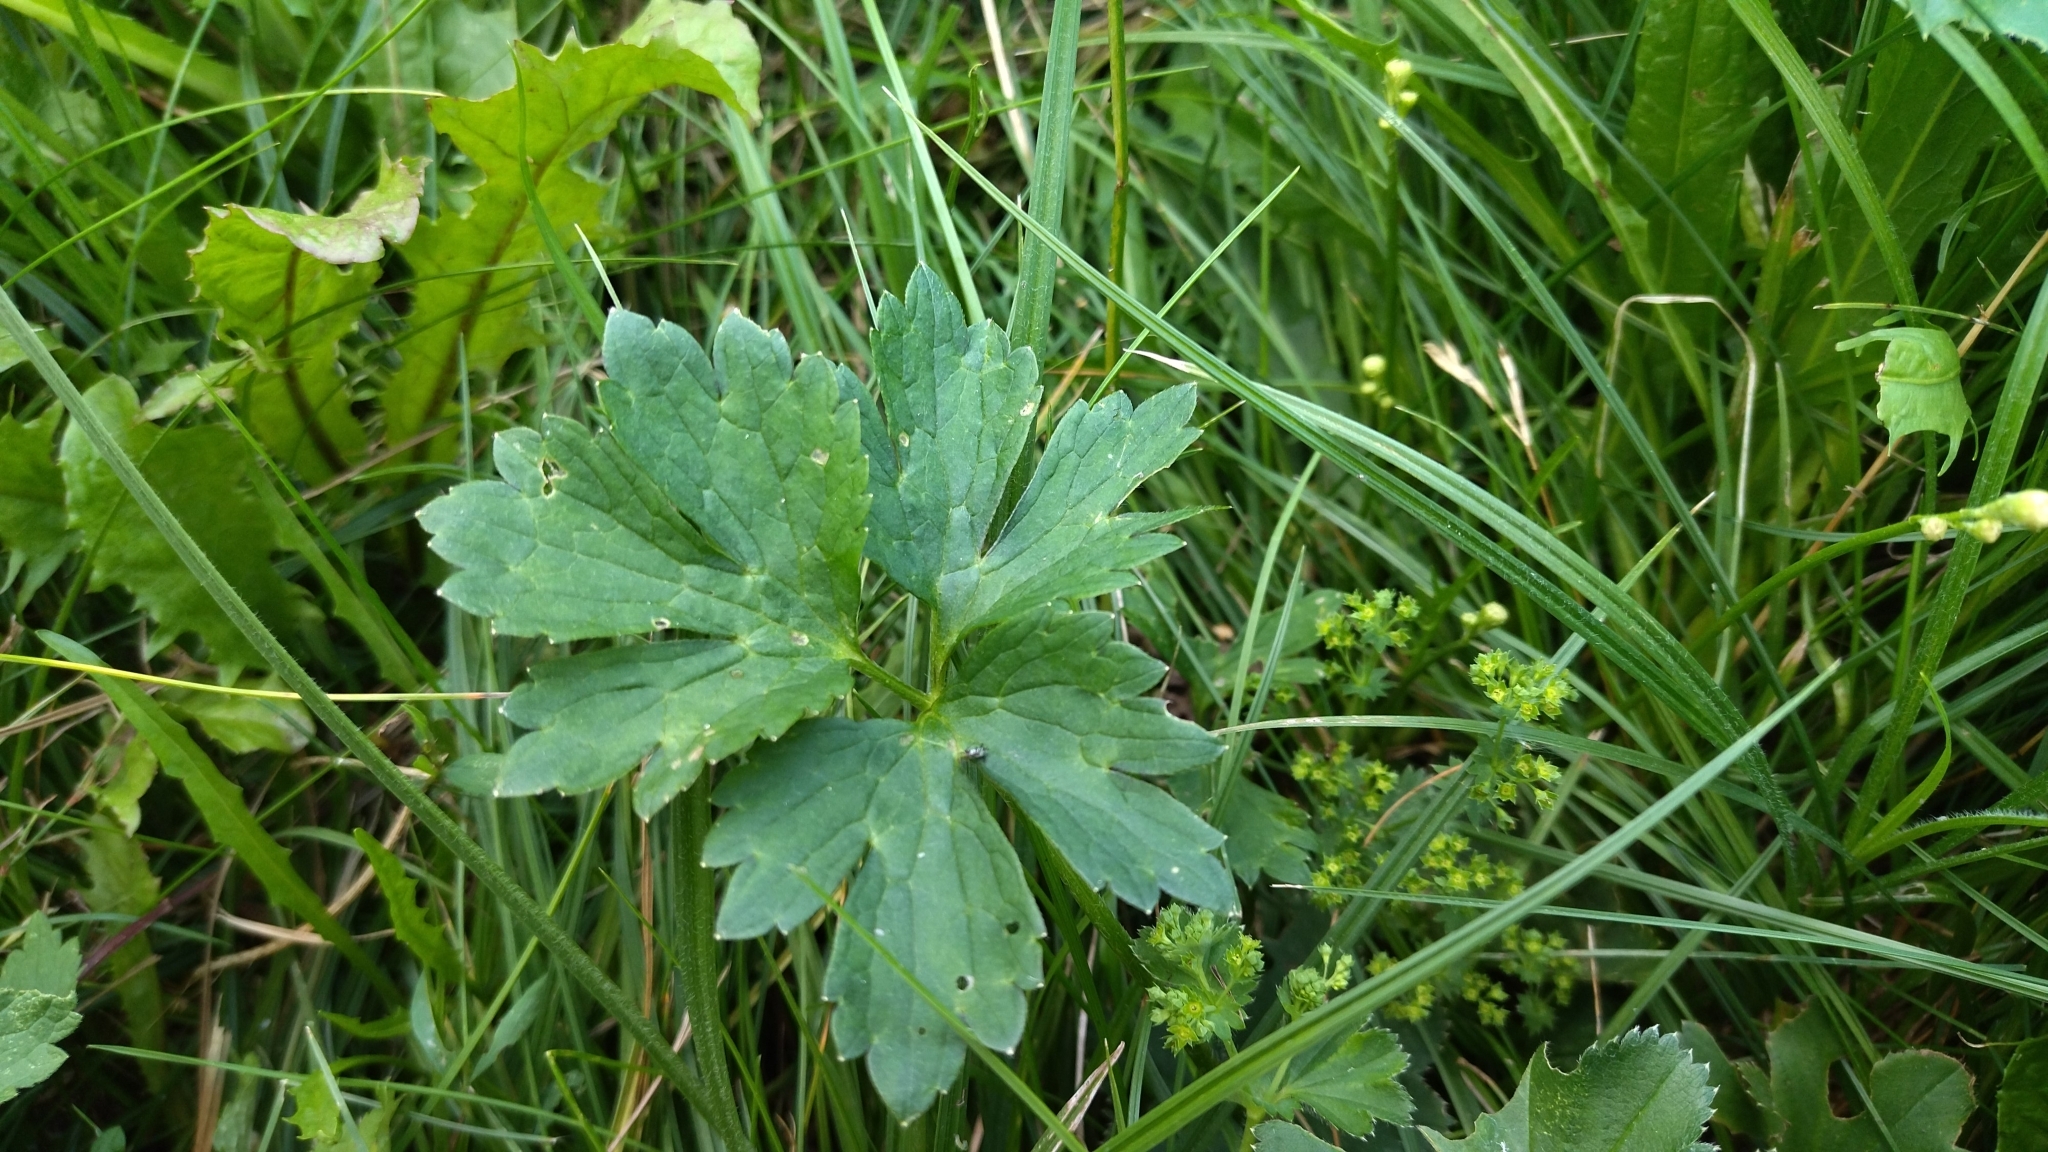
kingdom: Plantae
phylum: Tracheophyta
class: Magnoliopsida
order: Ranunculales
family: Ranunculaceae
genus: Ranunculus
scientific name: Ranunculus repens
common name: Creeping buttercup
